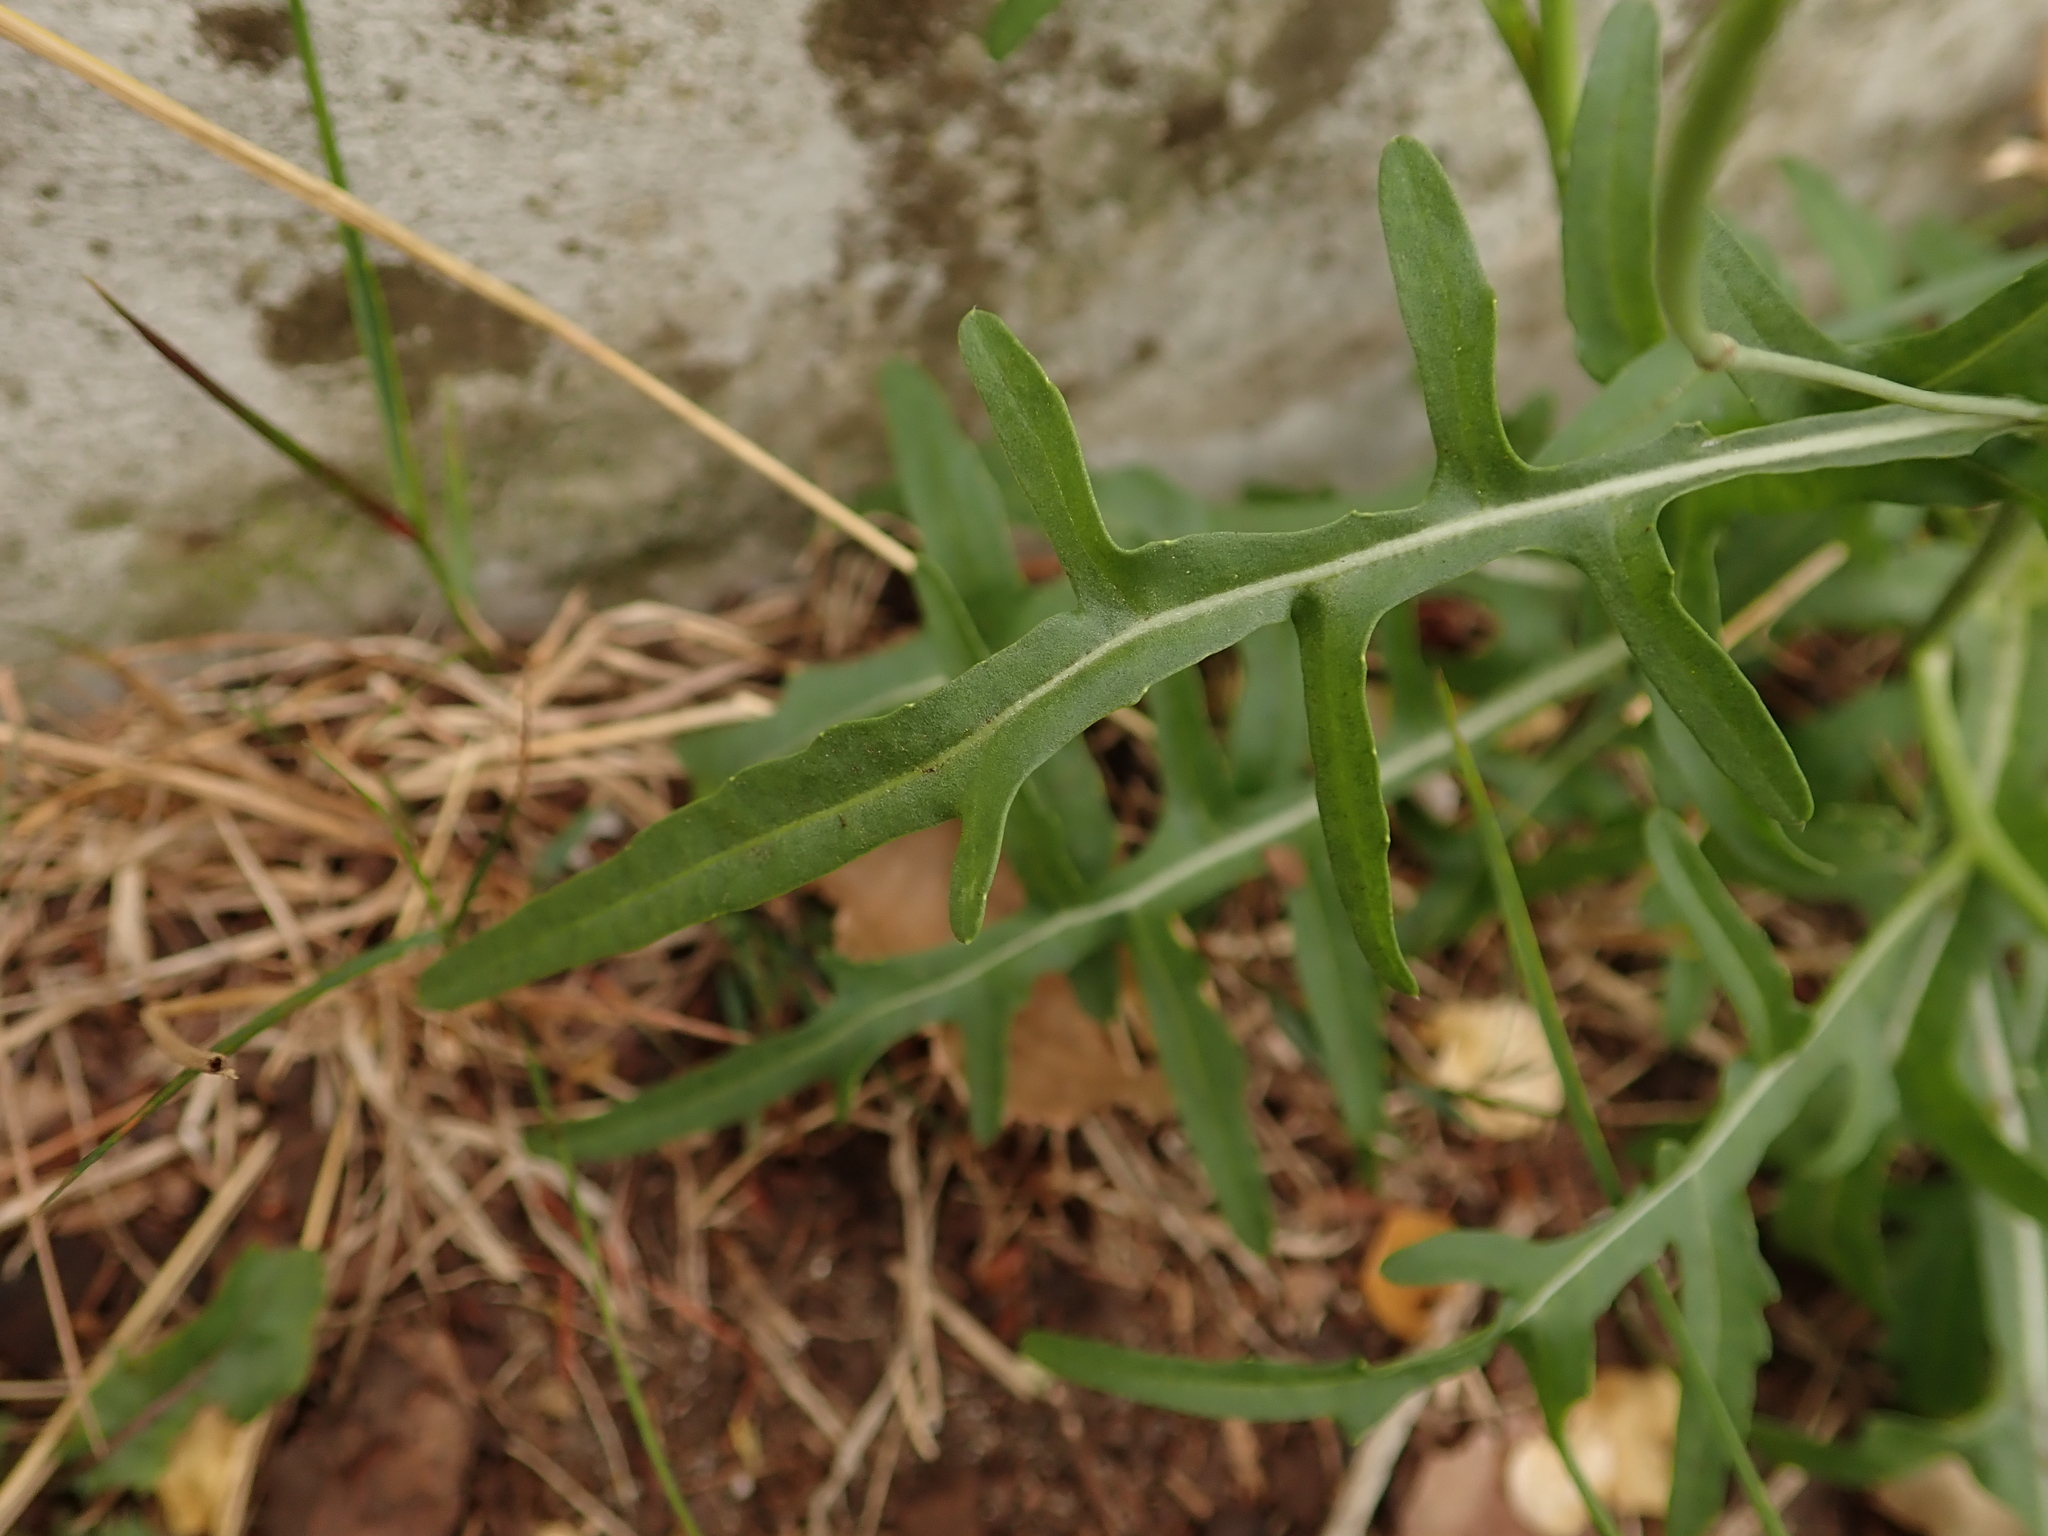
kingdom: Plantae
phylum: Tracheophyta
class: Magnoliopsida
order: Brassicales
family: Brassicaceae
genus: Diplotaxis
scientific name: Diplotaxis tenuifolia
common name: Perennial wall-rocket
